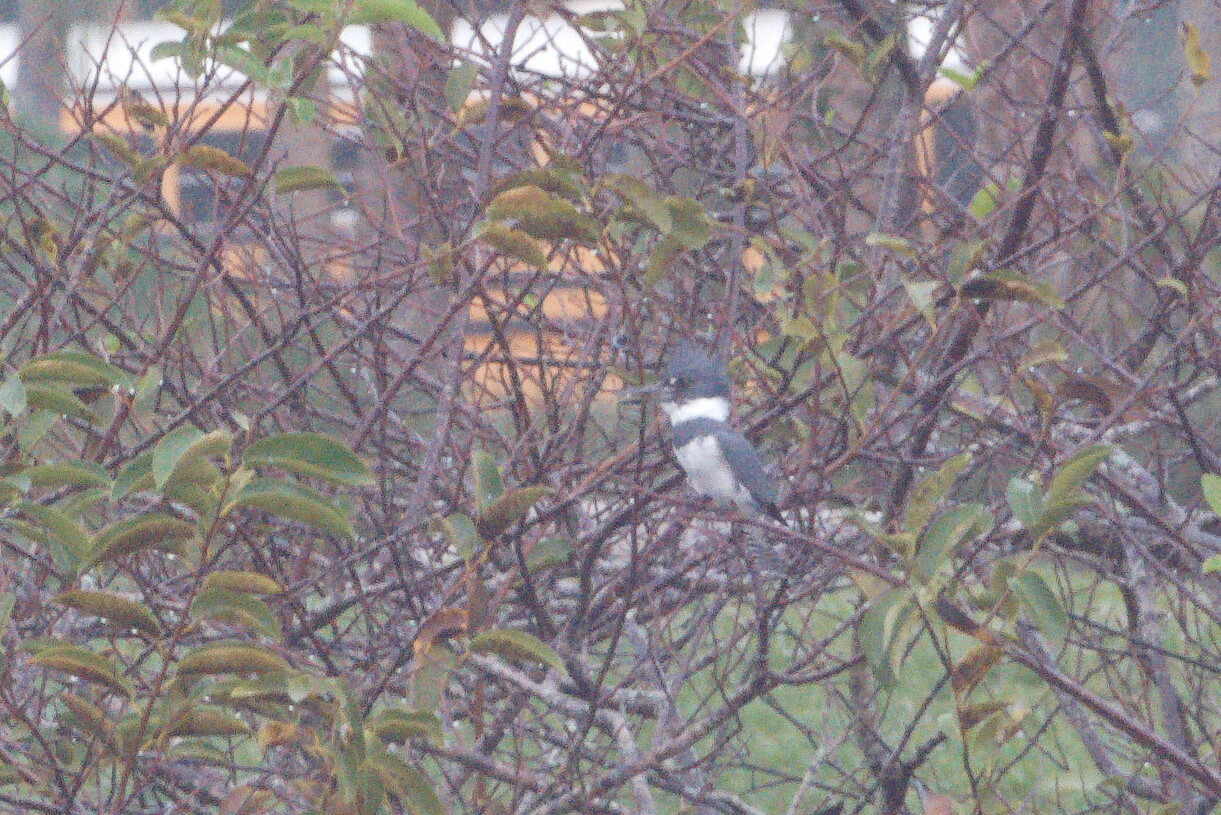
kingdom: Animalia
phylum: Chordata
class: Aves
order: Coraciiformes
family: Alcedinidae
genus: Megaceryle
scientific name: Megaceryle alcyon
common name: Belted kingfisher
